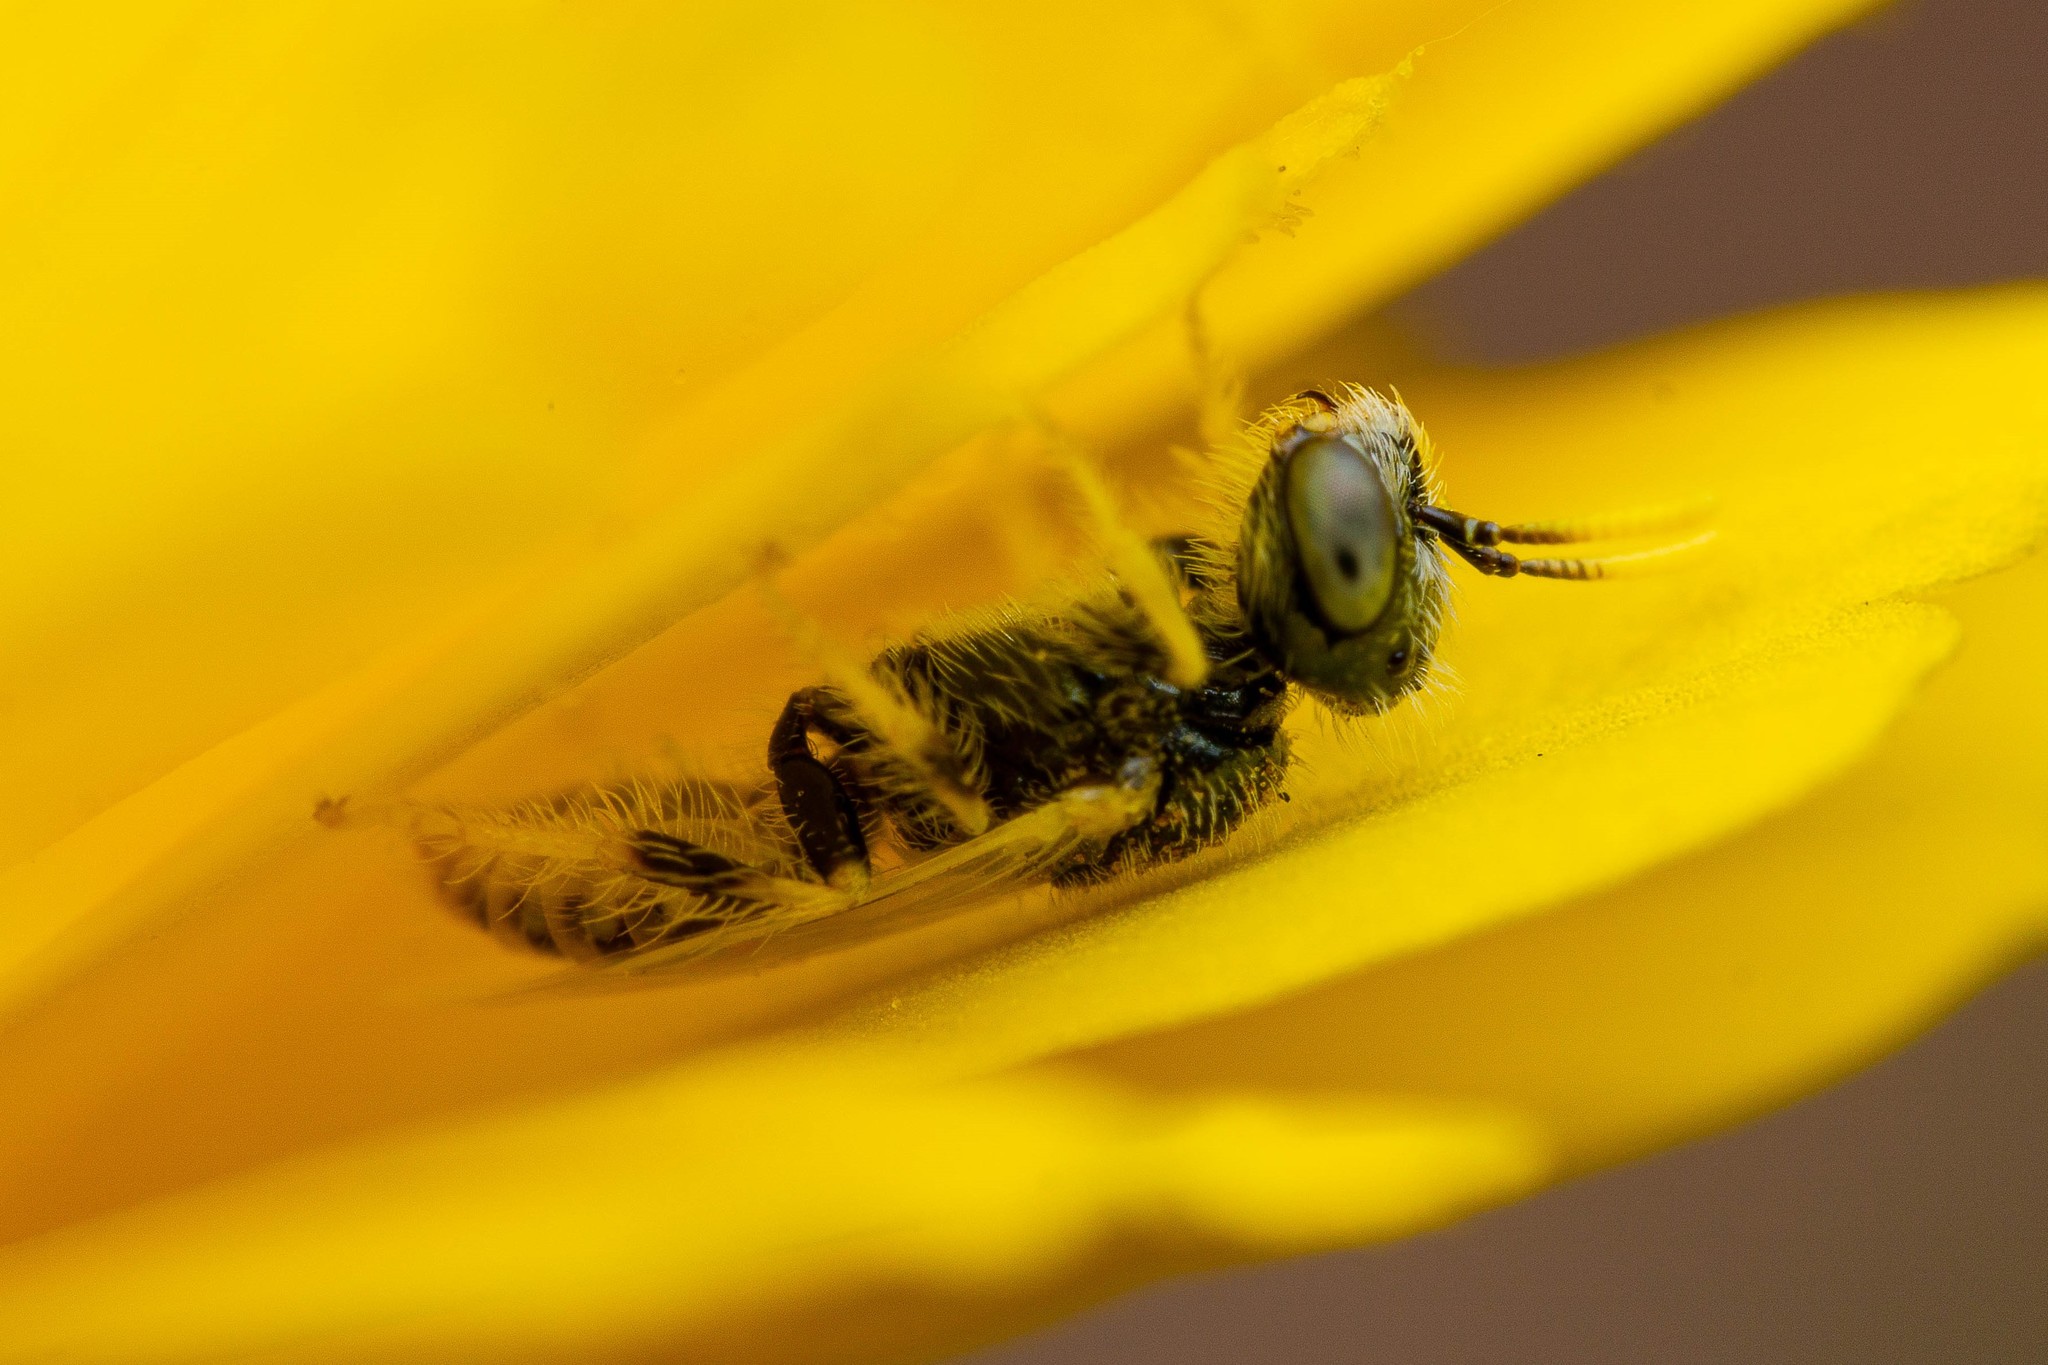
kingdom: Animalia
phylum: Arthropoda
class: Insecta
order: Hymenoptera
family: Andrenidae
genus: Perdita
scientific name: Perdita callicerata
